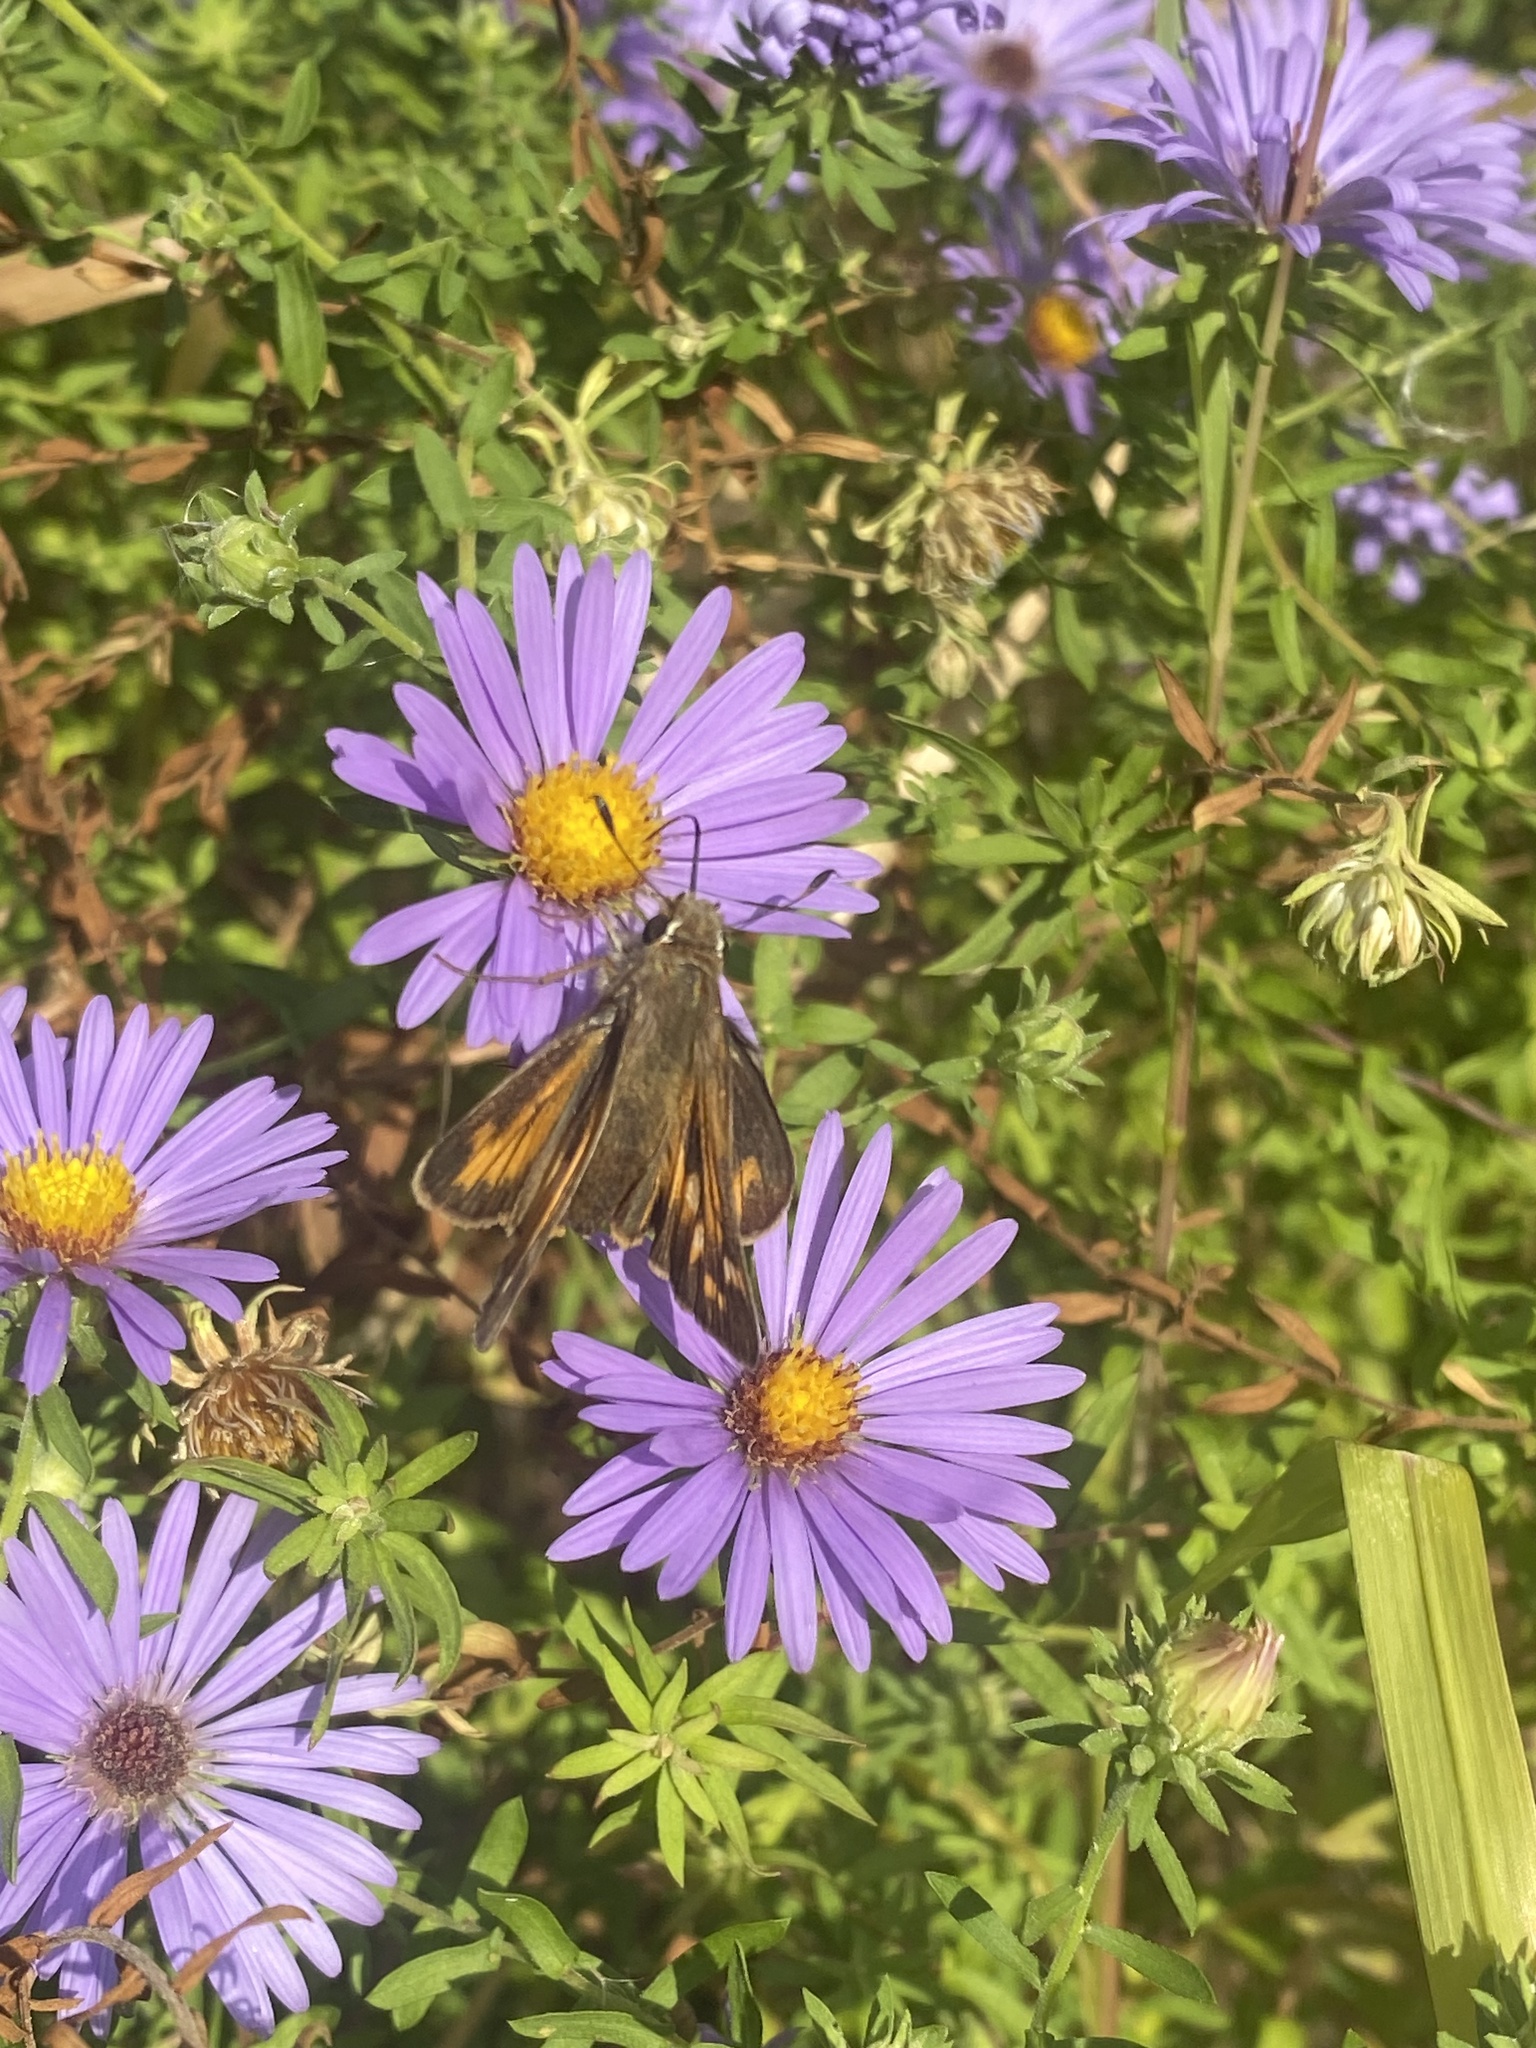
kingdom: Animalia
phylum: Arthropoda
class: Insecta
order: Lepidoptera
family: Hesperiidae
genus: Atalopedes
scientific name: Atalopedes
